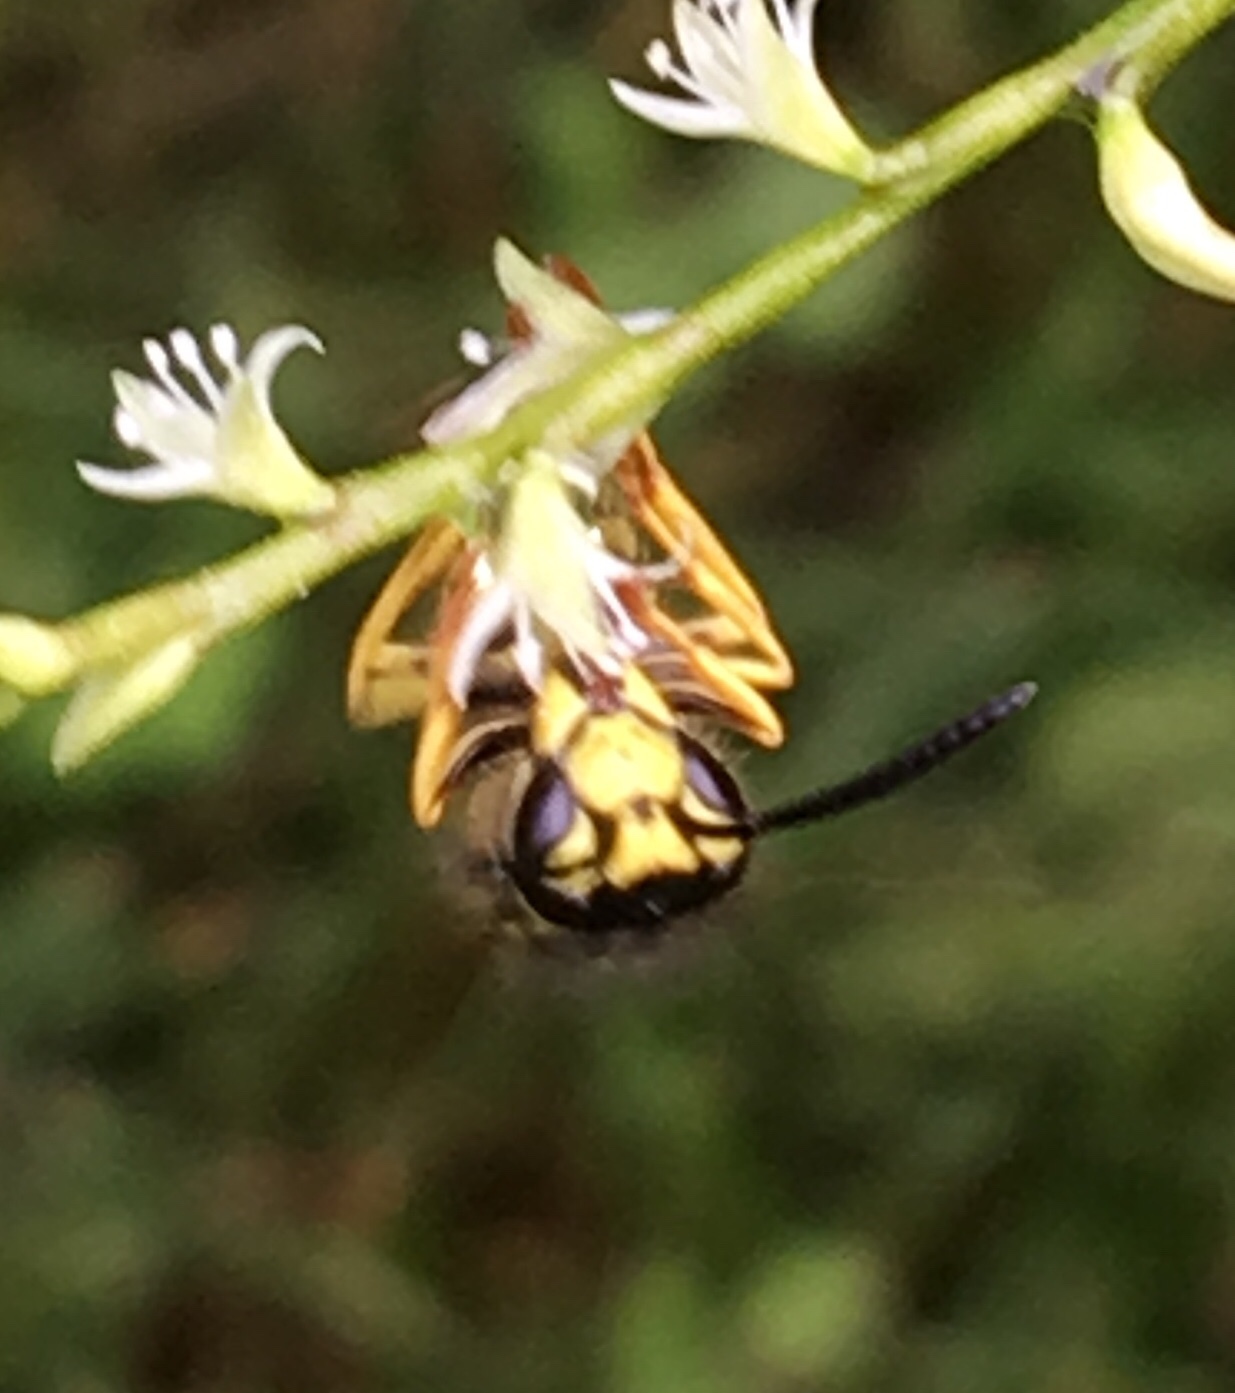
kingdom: Animalia
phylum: Arthropoda
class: Insecta
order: Hymenoptera
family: Vespidae
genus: Vespula
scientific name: Vespula maculifrons
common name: Eastern yellowjacket
